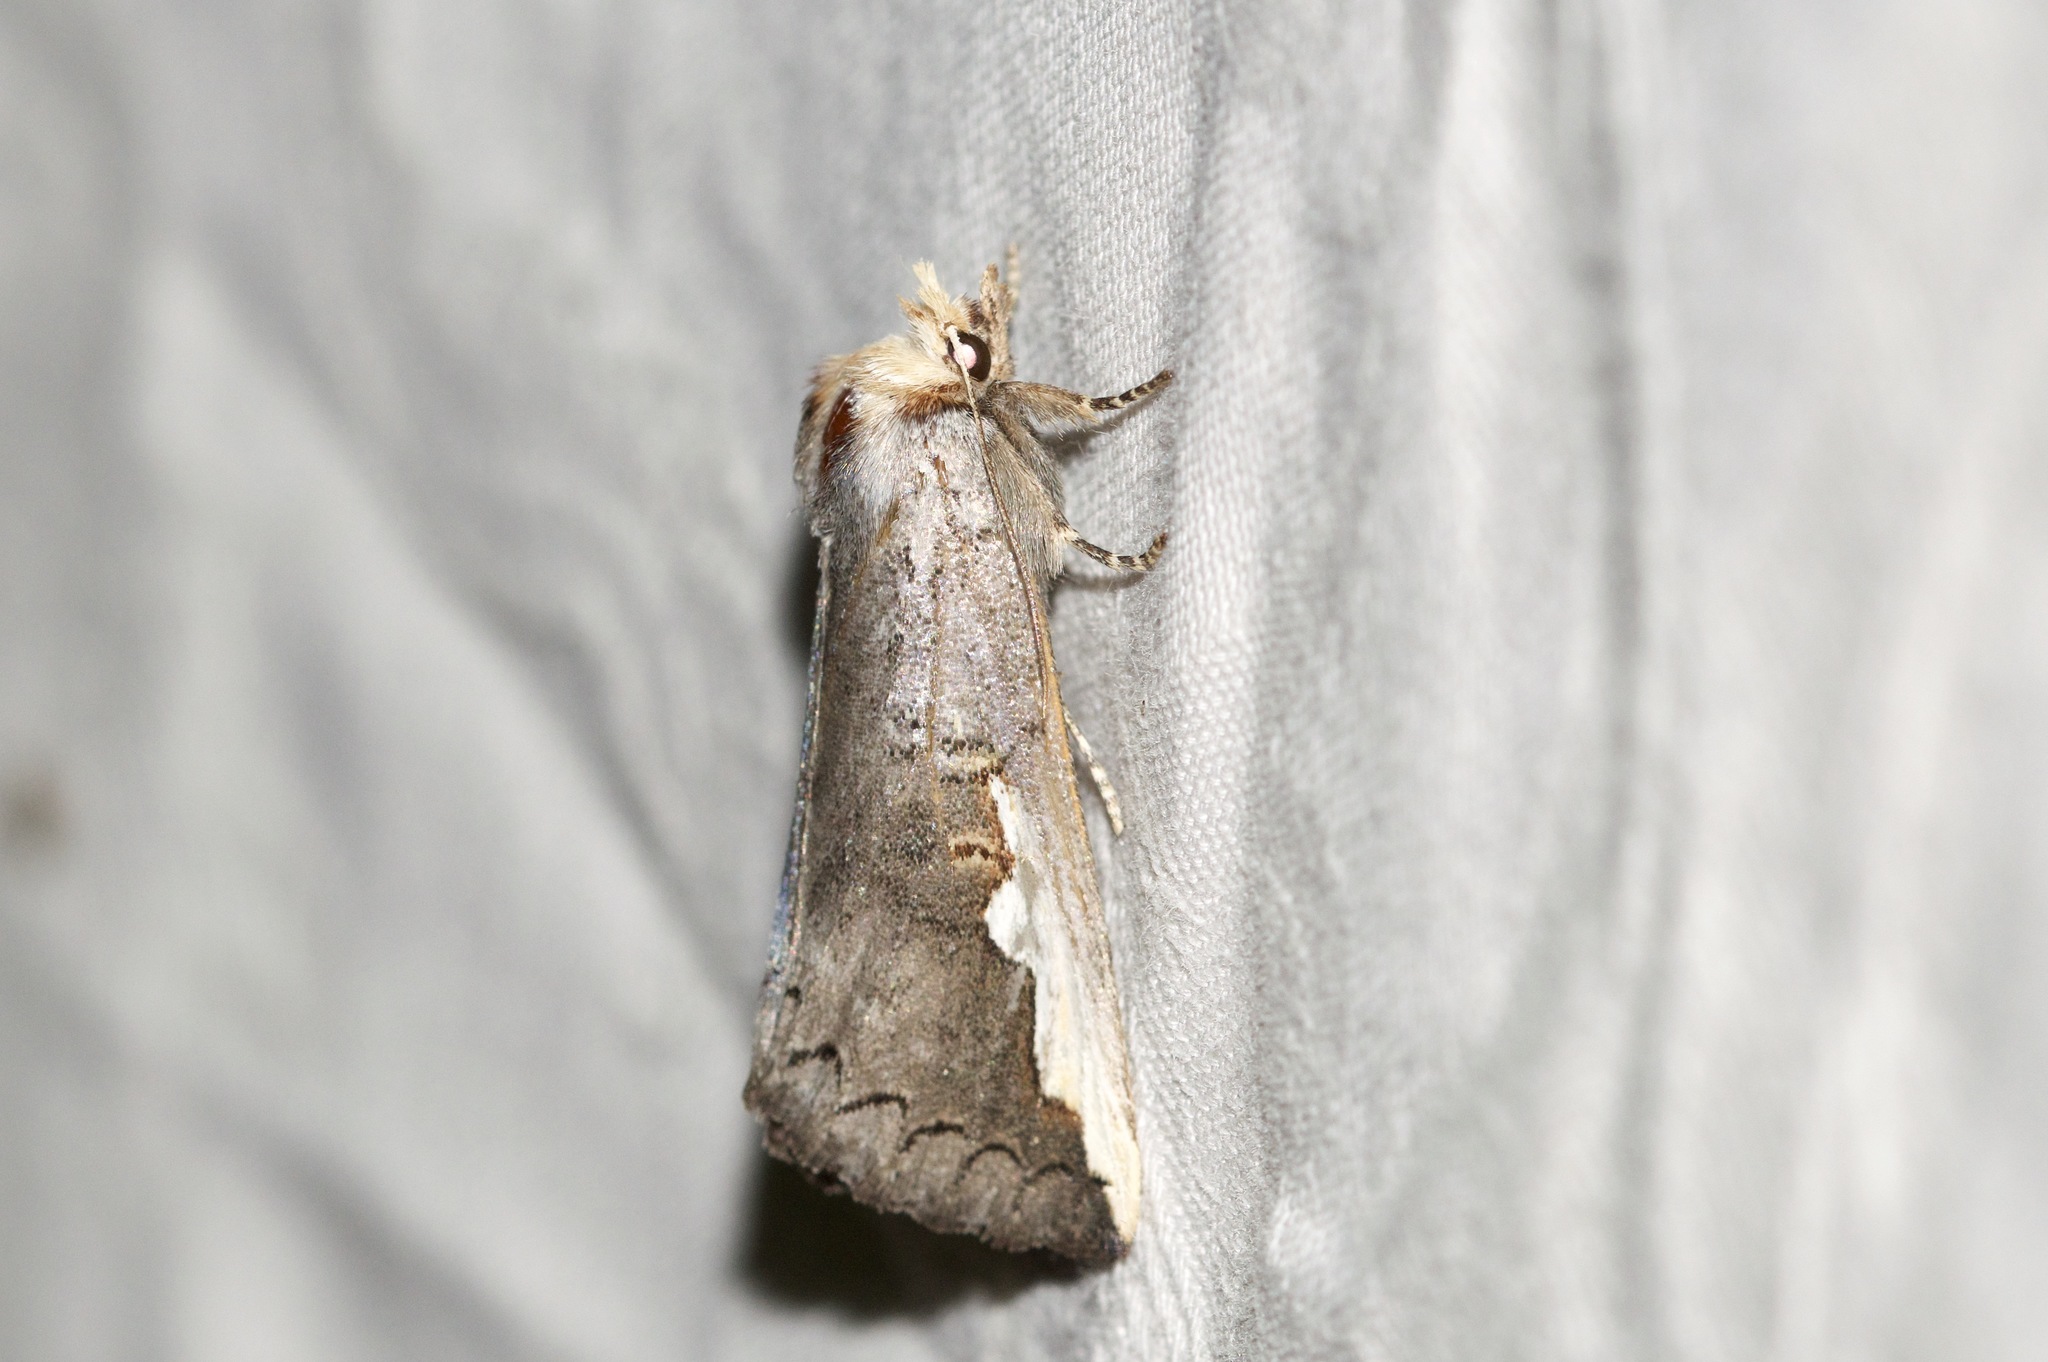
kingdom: Animalia
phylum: Arthropoda
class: Insecta
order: Lepidoptera
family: Notodontidae
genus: Symmerista
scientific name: Symmerista
